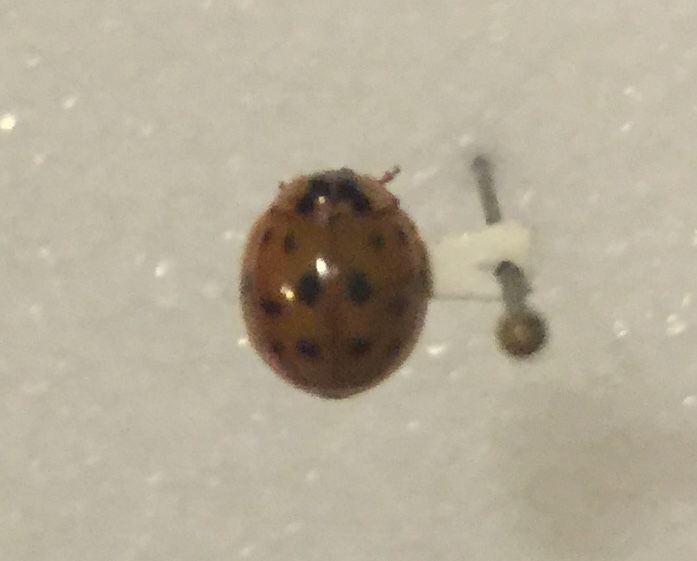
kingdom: Animalia
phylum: Arthropoda
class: Insecta
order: Coleoptera
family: Coccinellidae
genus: Harmonia
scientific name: Harmonia axyridis
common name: Harlequin ladybird
